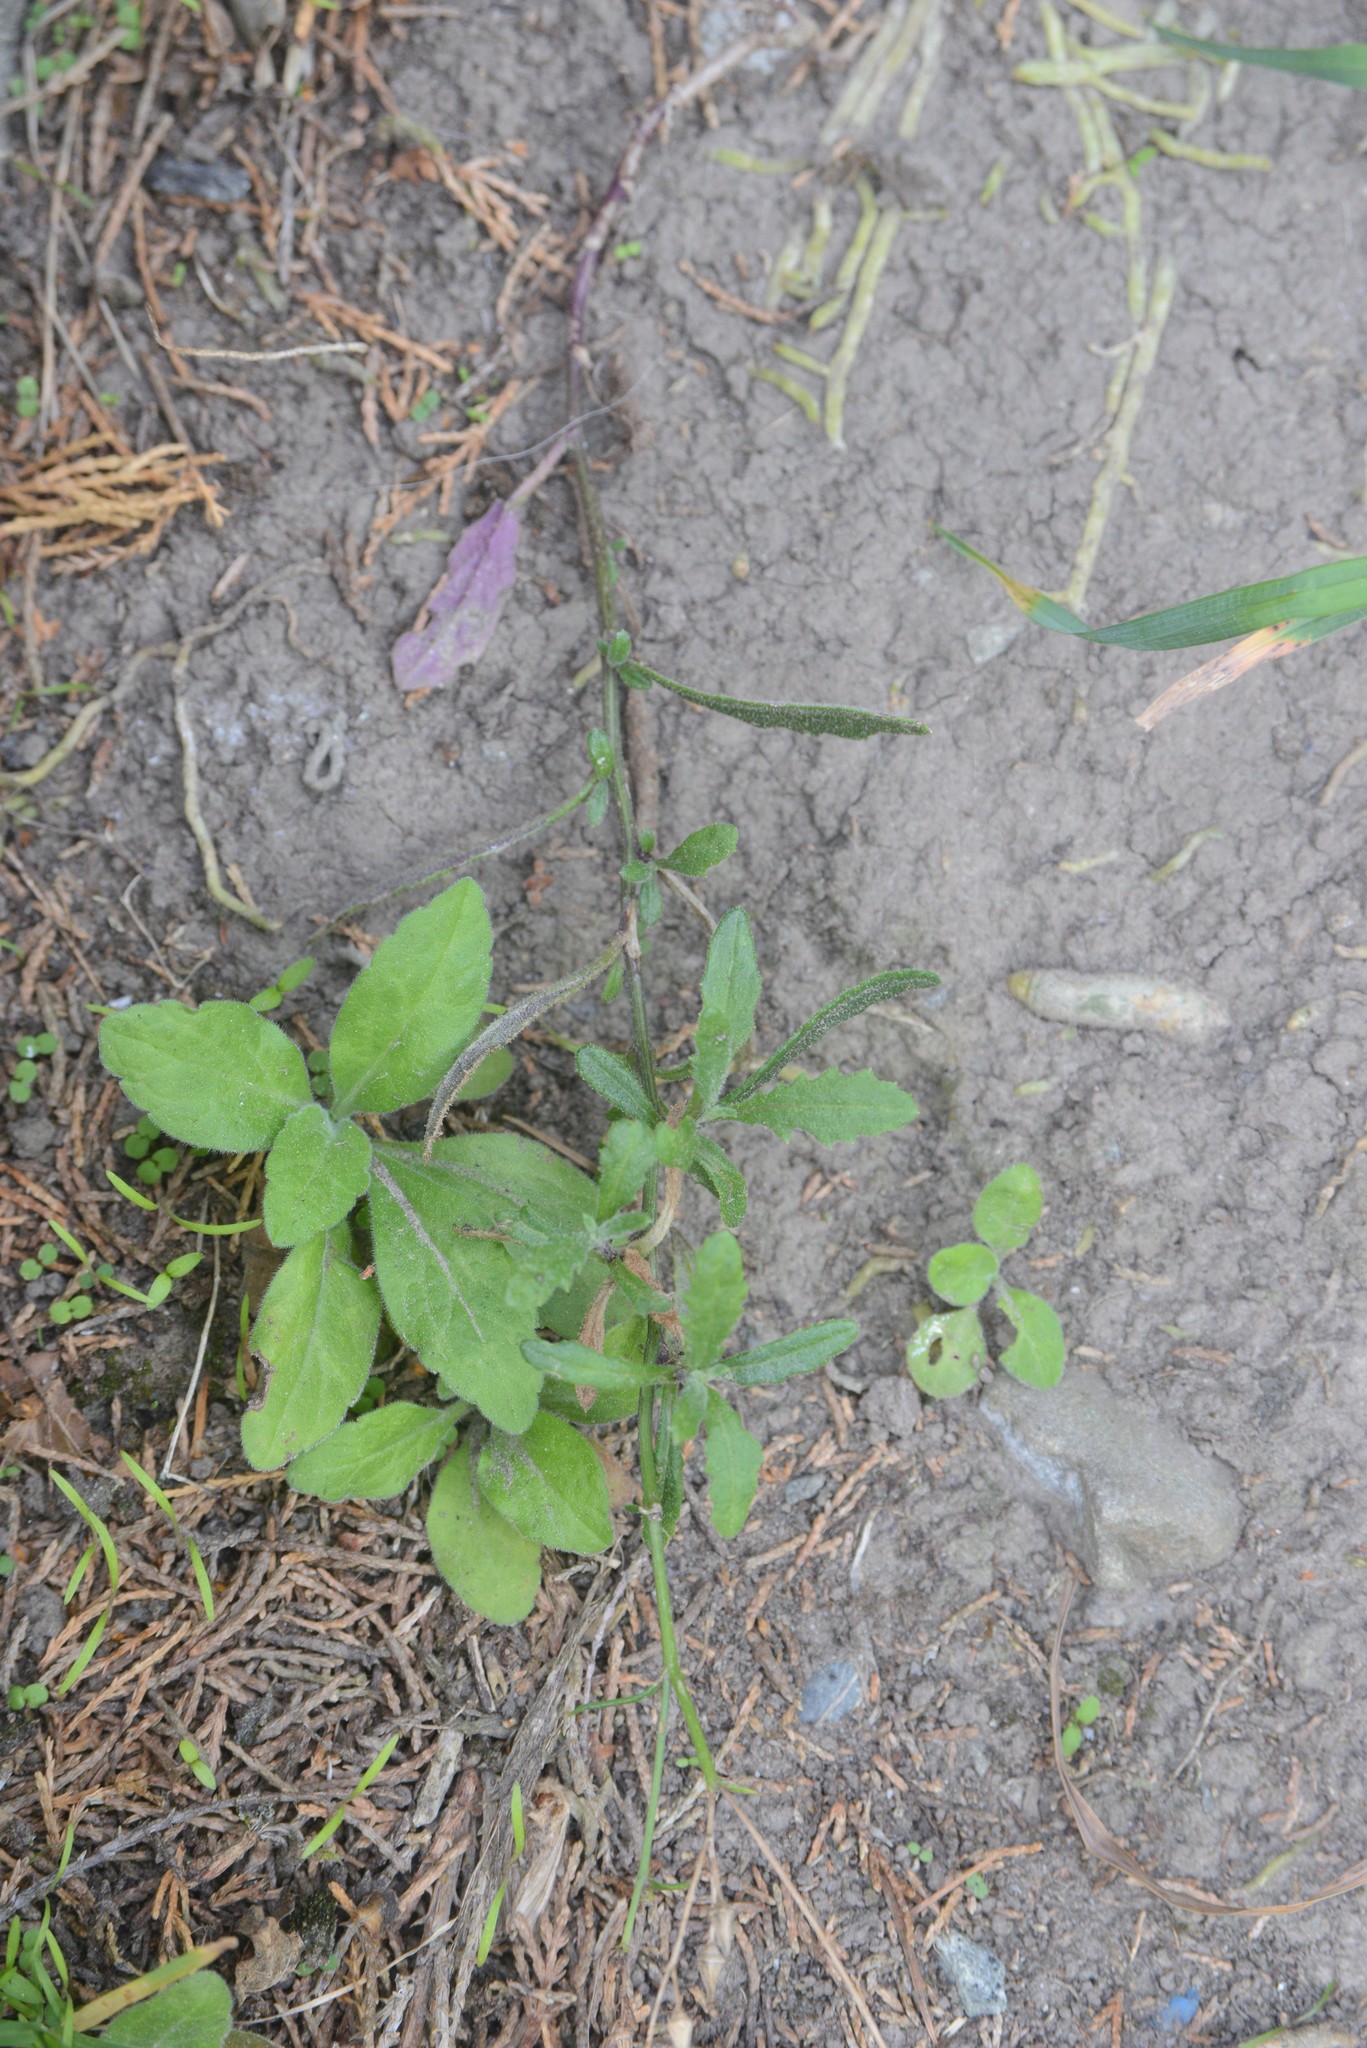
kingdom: Plantae
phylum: Tracheophyta
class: Magnoliopsida
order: Asterales
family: Asteraceae
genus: Senecio
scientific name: Senecio hispidulus
